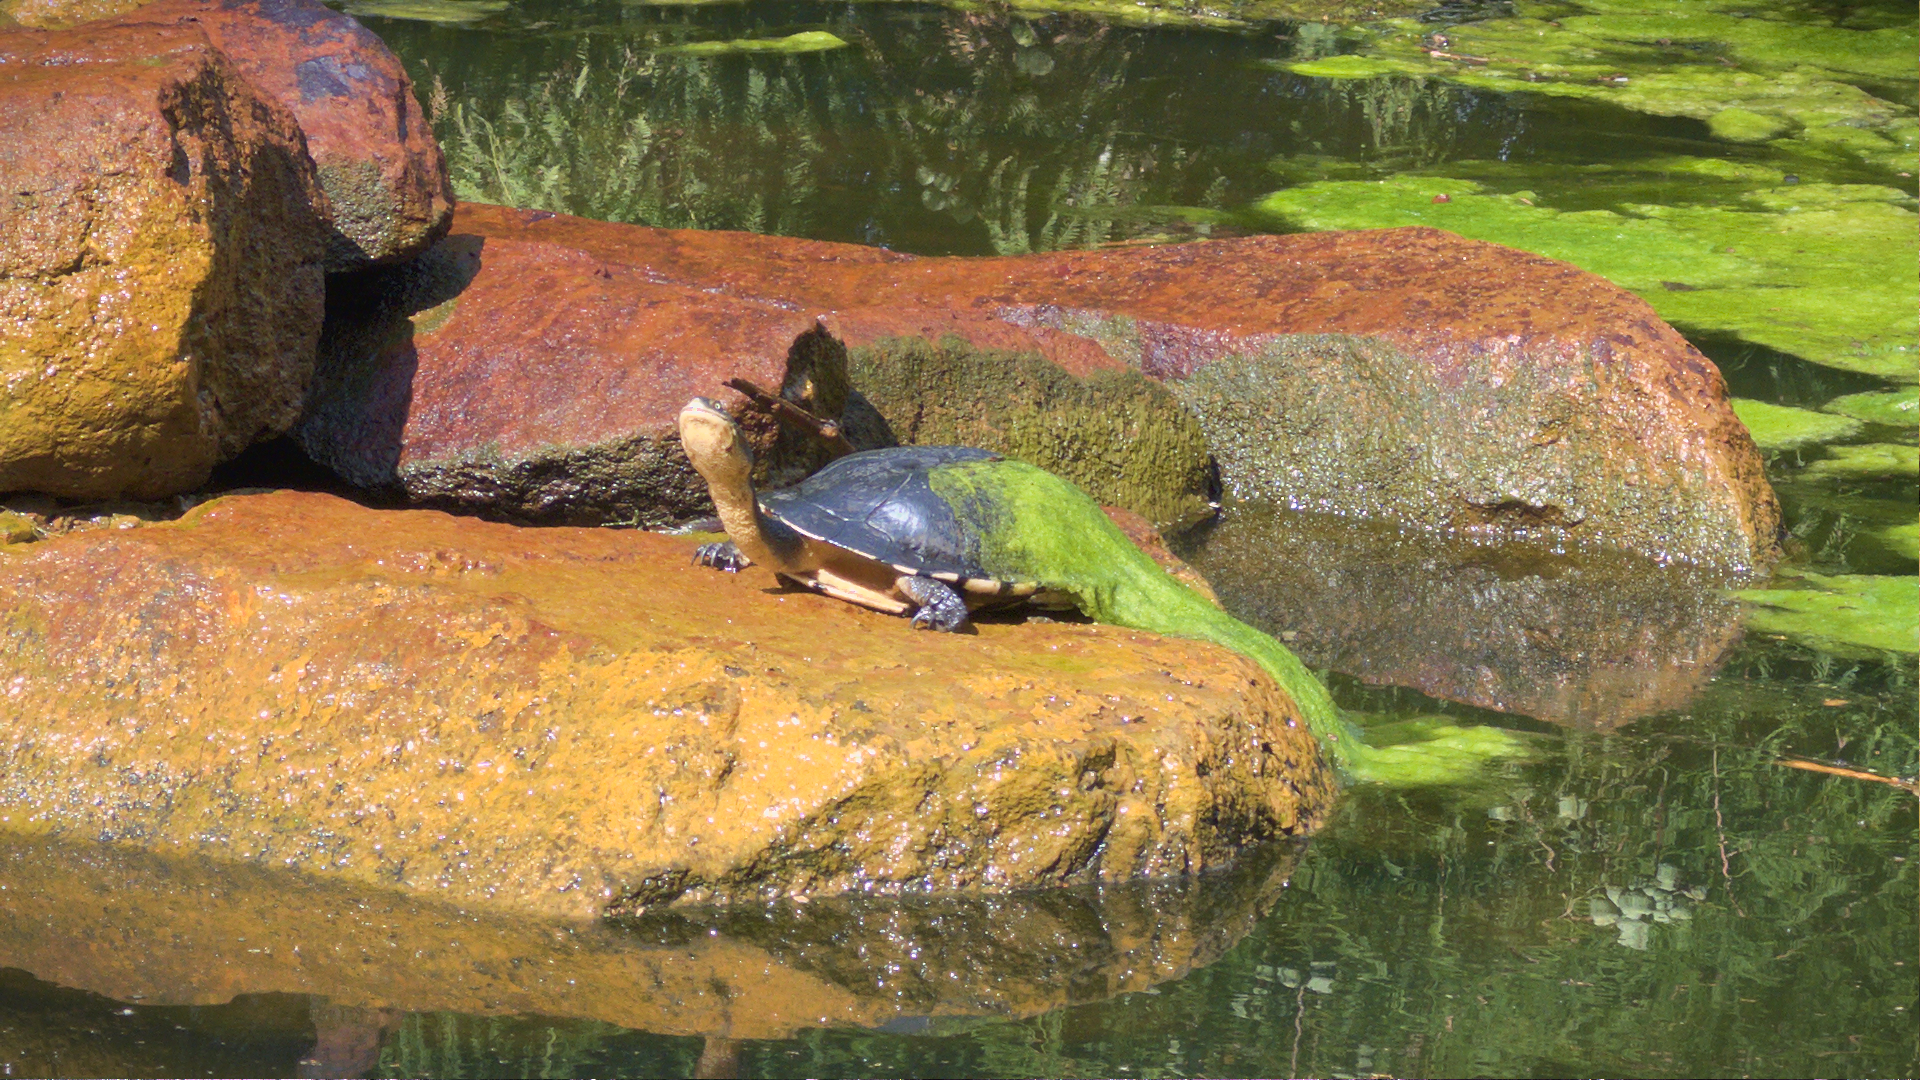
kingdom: Animalia
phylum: Chordata
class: Testudines
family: Chelidae
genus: Chelodina
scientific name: Chelodina longicollis
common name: Eastern snake-necked turtle
